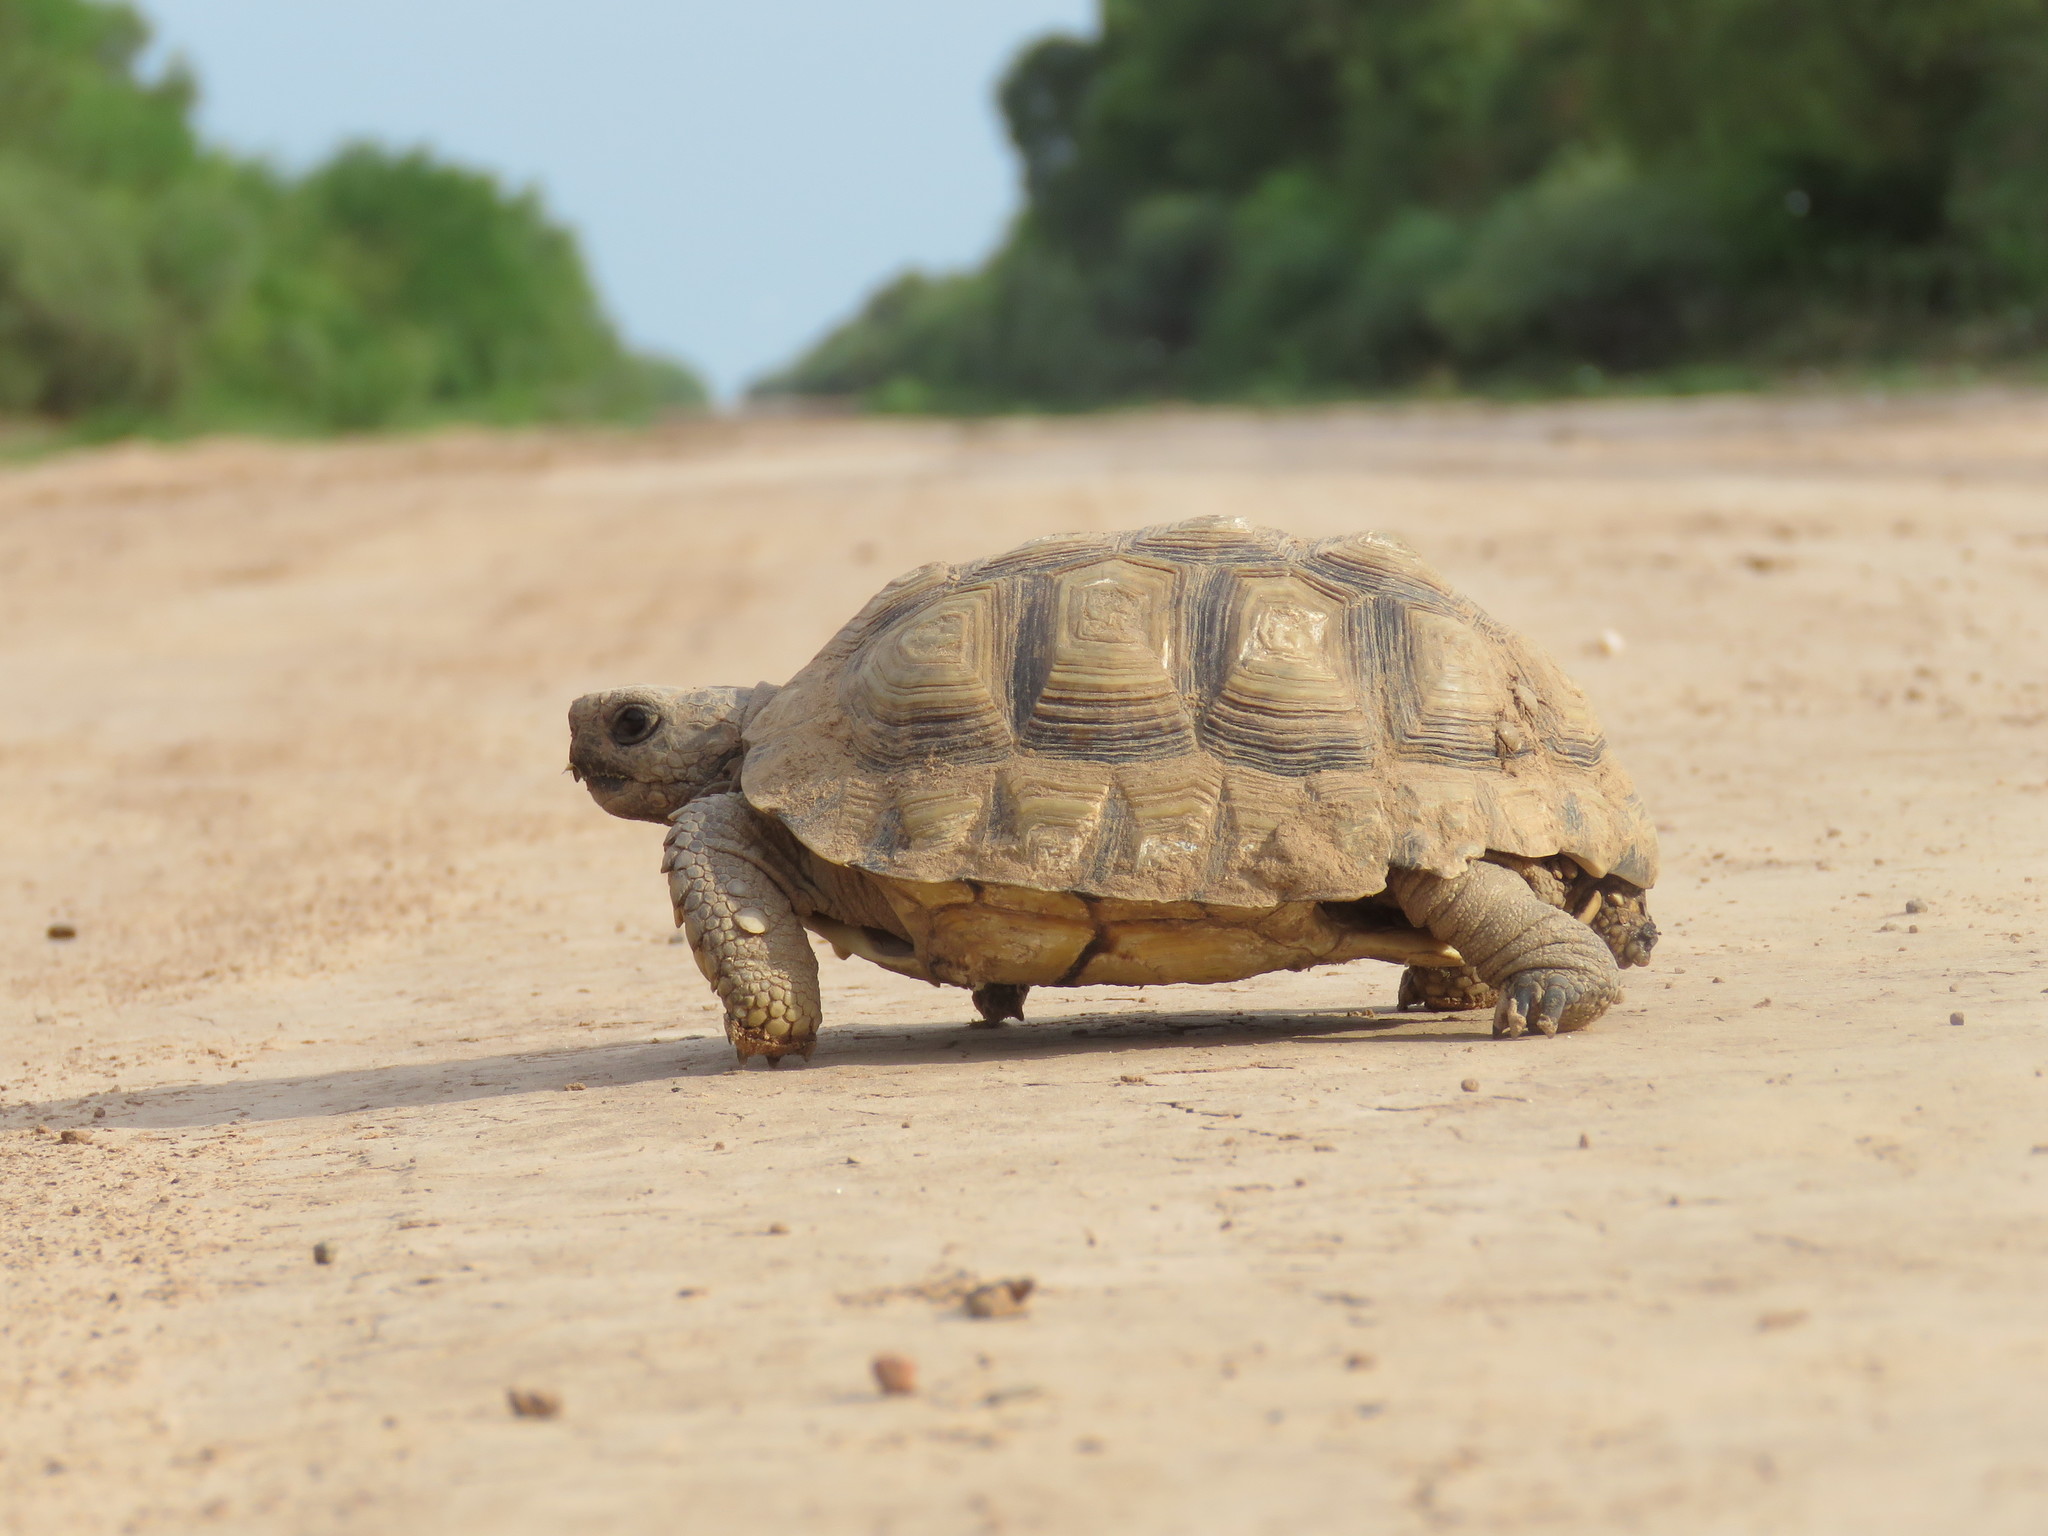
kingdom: Animalia
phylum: Chordata
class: Testudines
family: Testudinidae
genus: Chelonoidis
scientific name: Chelonoidis chilensis
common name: Chaco tortoise
